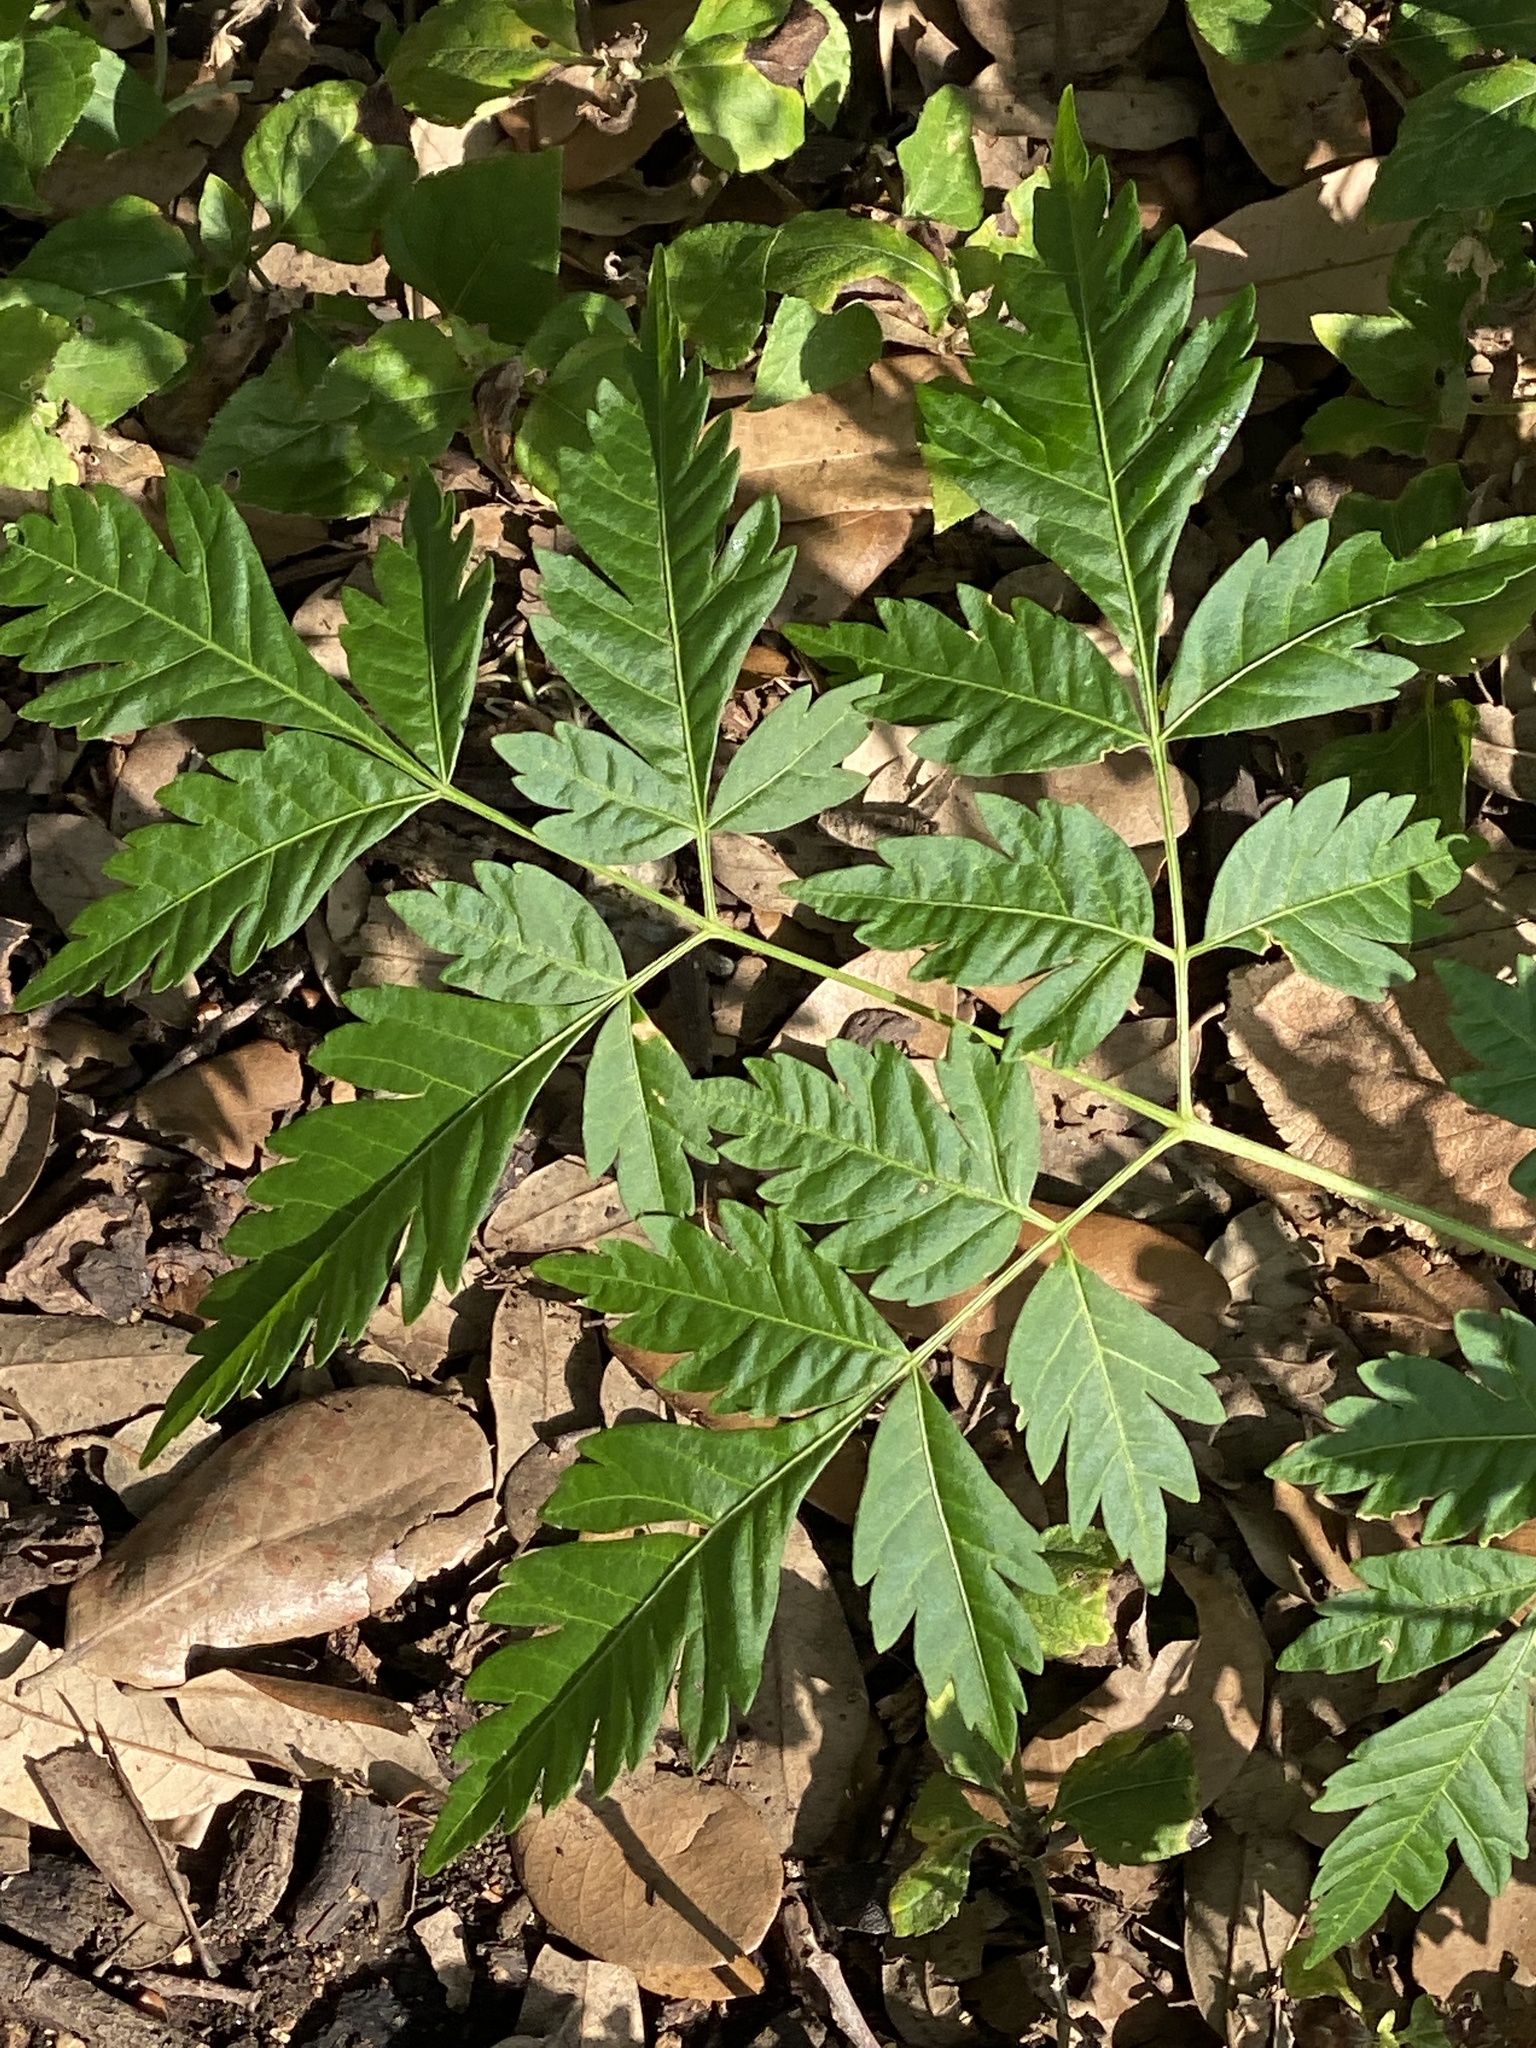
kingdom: Plantae
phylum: Tracheophyta
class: Magnoliopsida
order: Sapindales
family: Meliaceae
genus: Melia
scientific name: Melia azedarach
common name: Chinaberrytree
